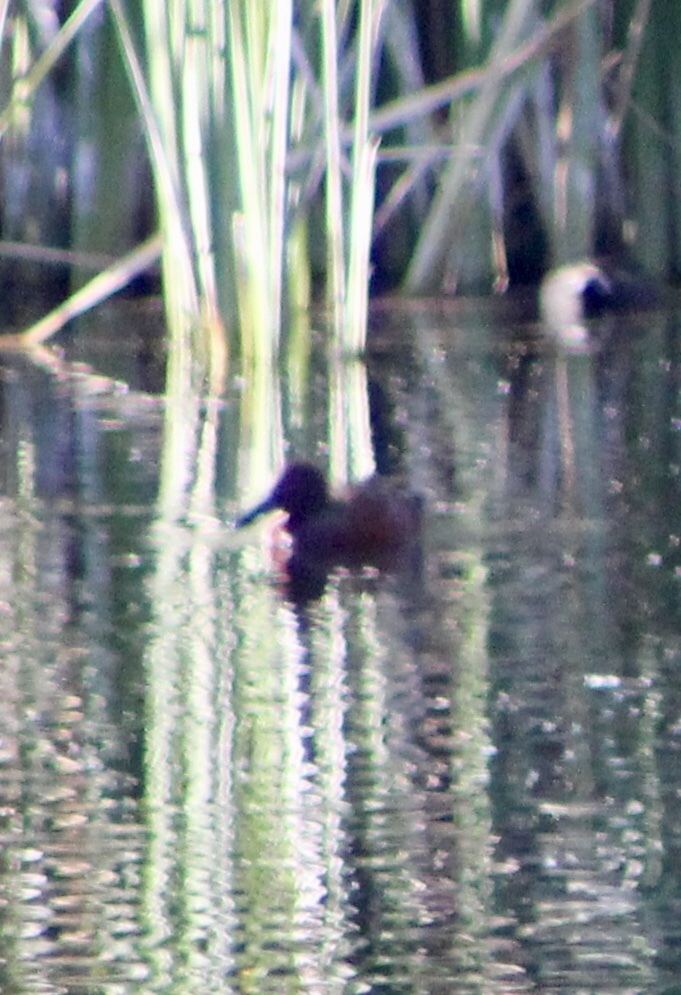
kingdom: Animalia
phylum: Chordata
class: Aves
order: Anseriformes
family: Anatidae
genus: Spatula
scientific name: Spatula cyanoptera
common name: Cinnamon teal
